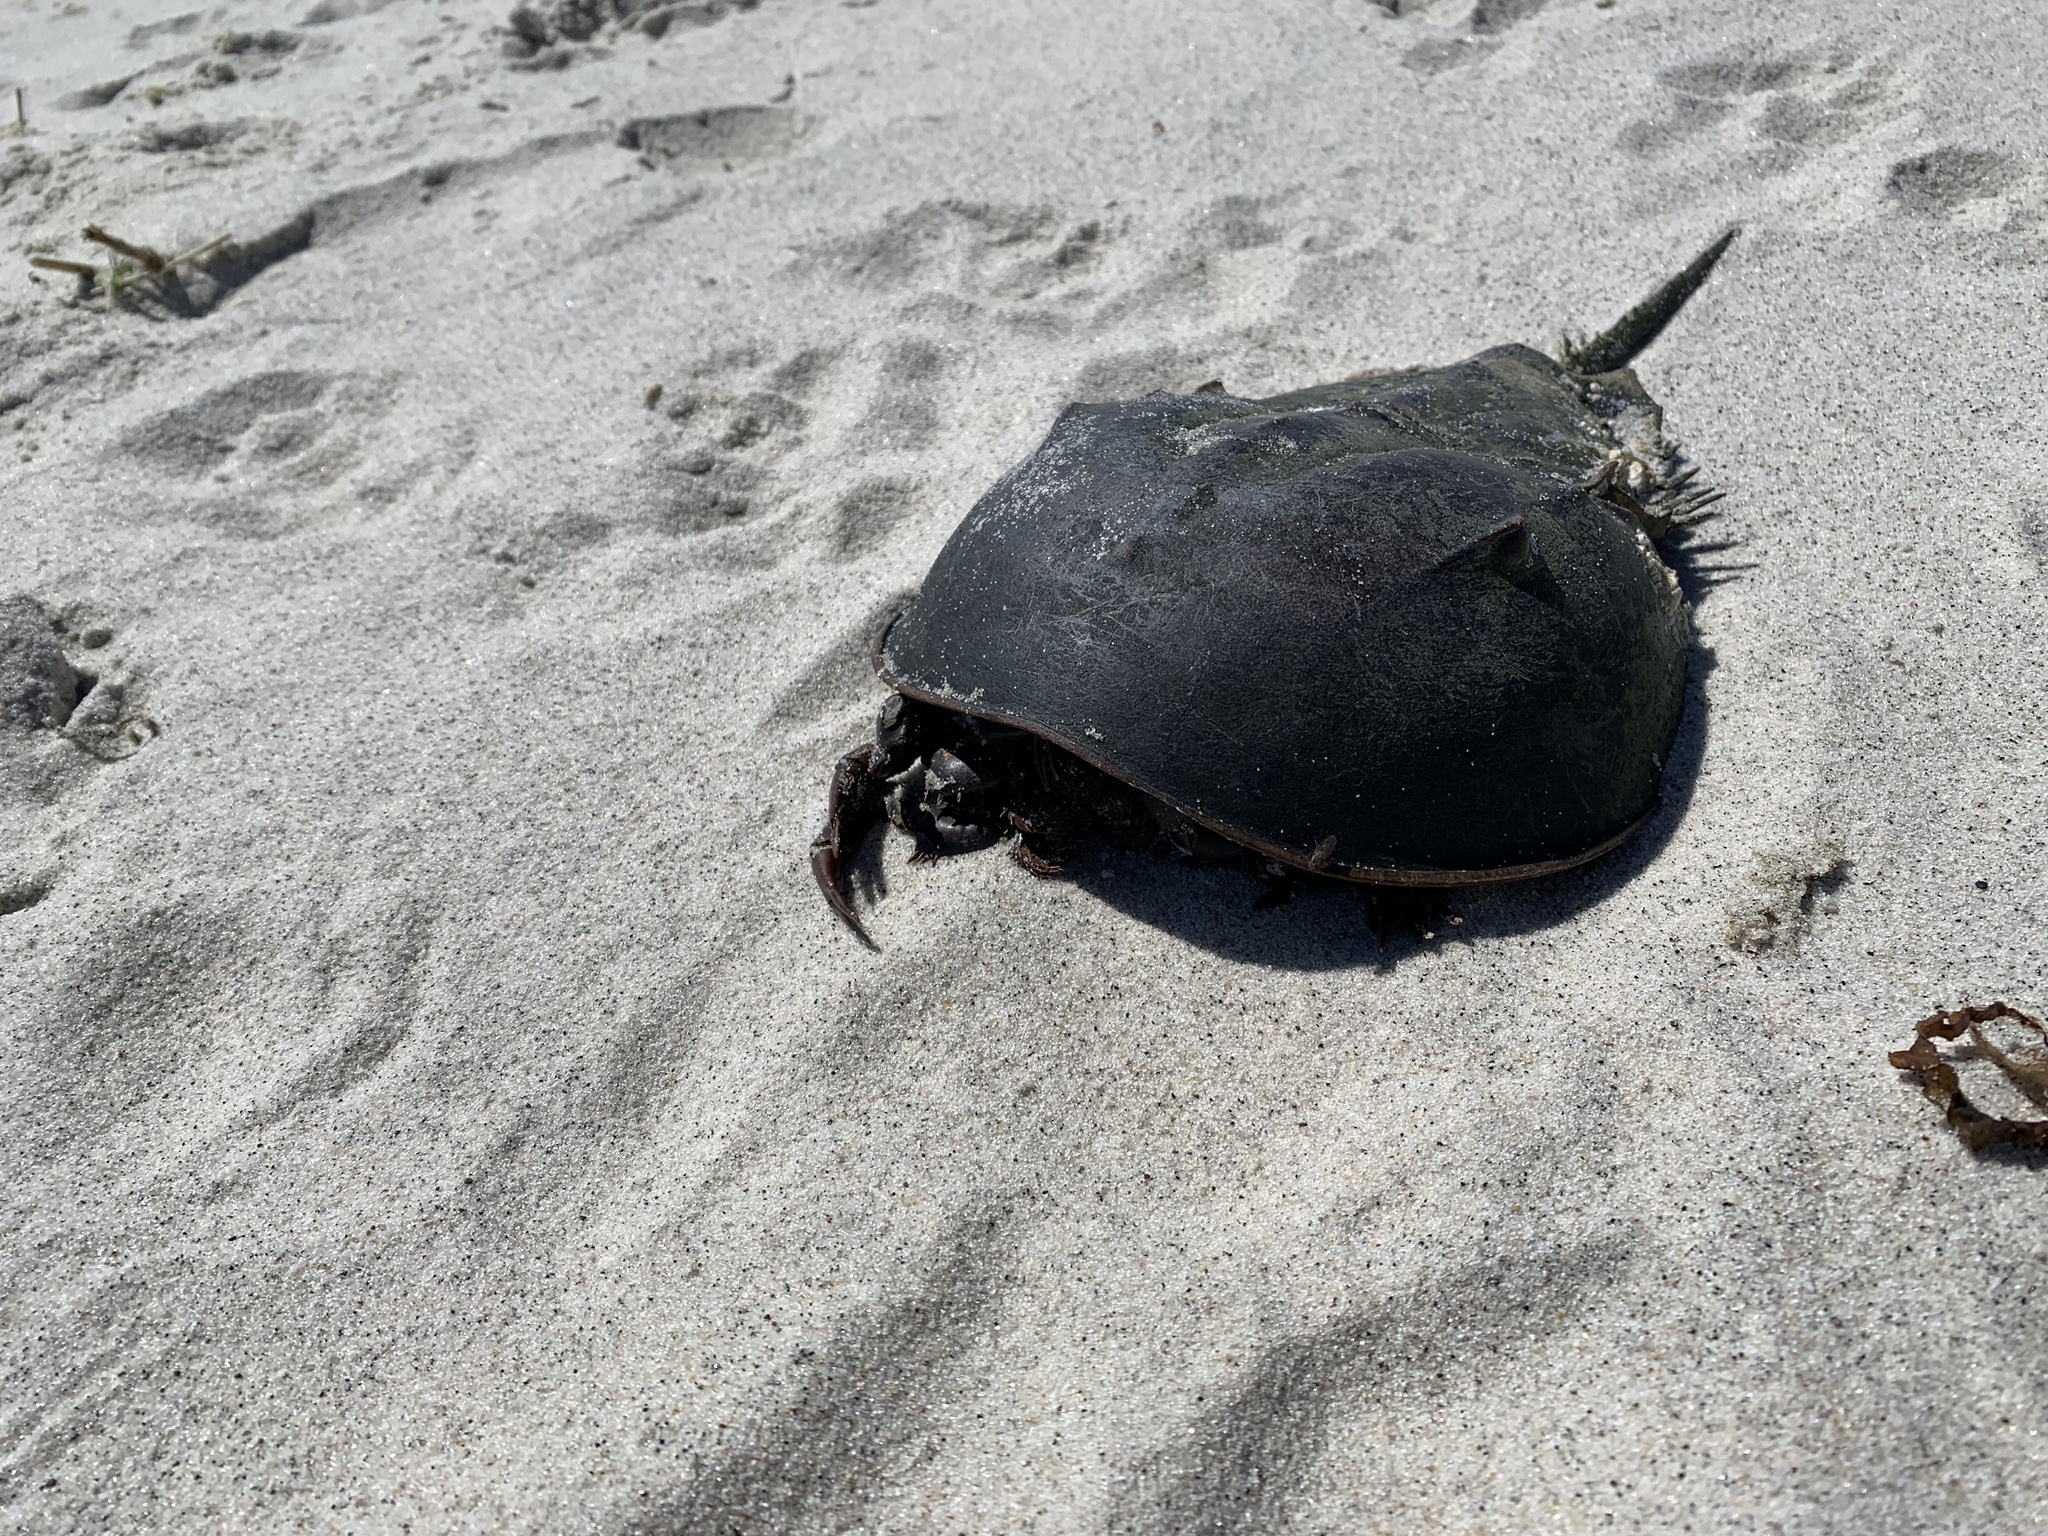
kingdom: Animalia
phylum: Arthropoda
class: Merostomata
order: Xiphosurida
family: Limulidae
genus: Limulus
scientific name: Limulus polyphemus
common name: Horseshoe crab
